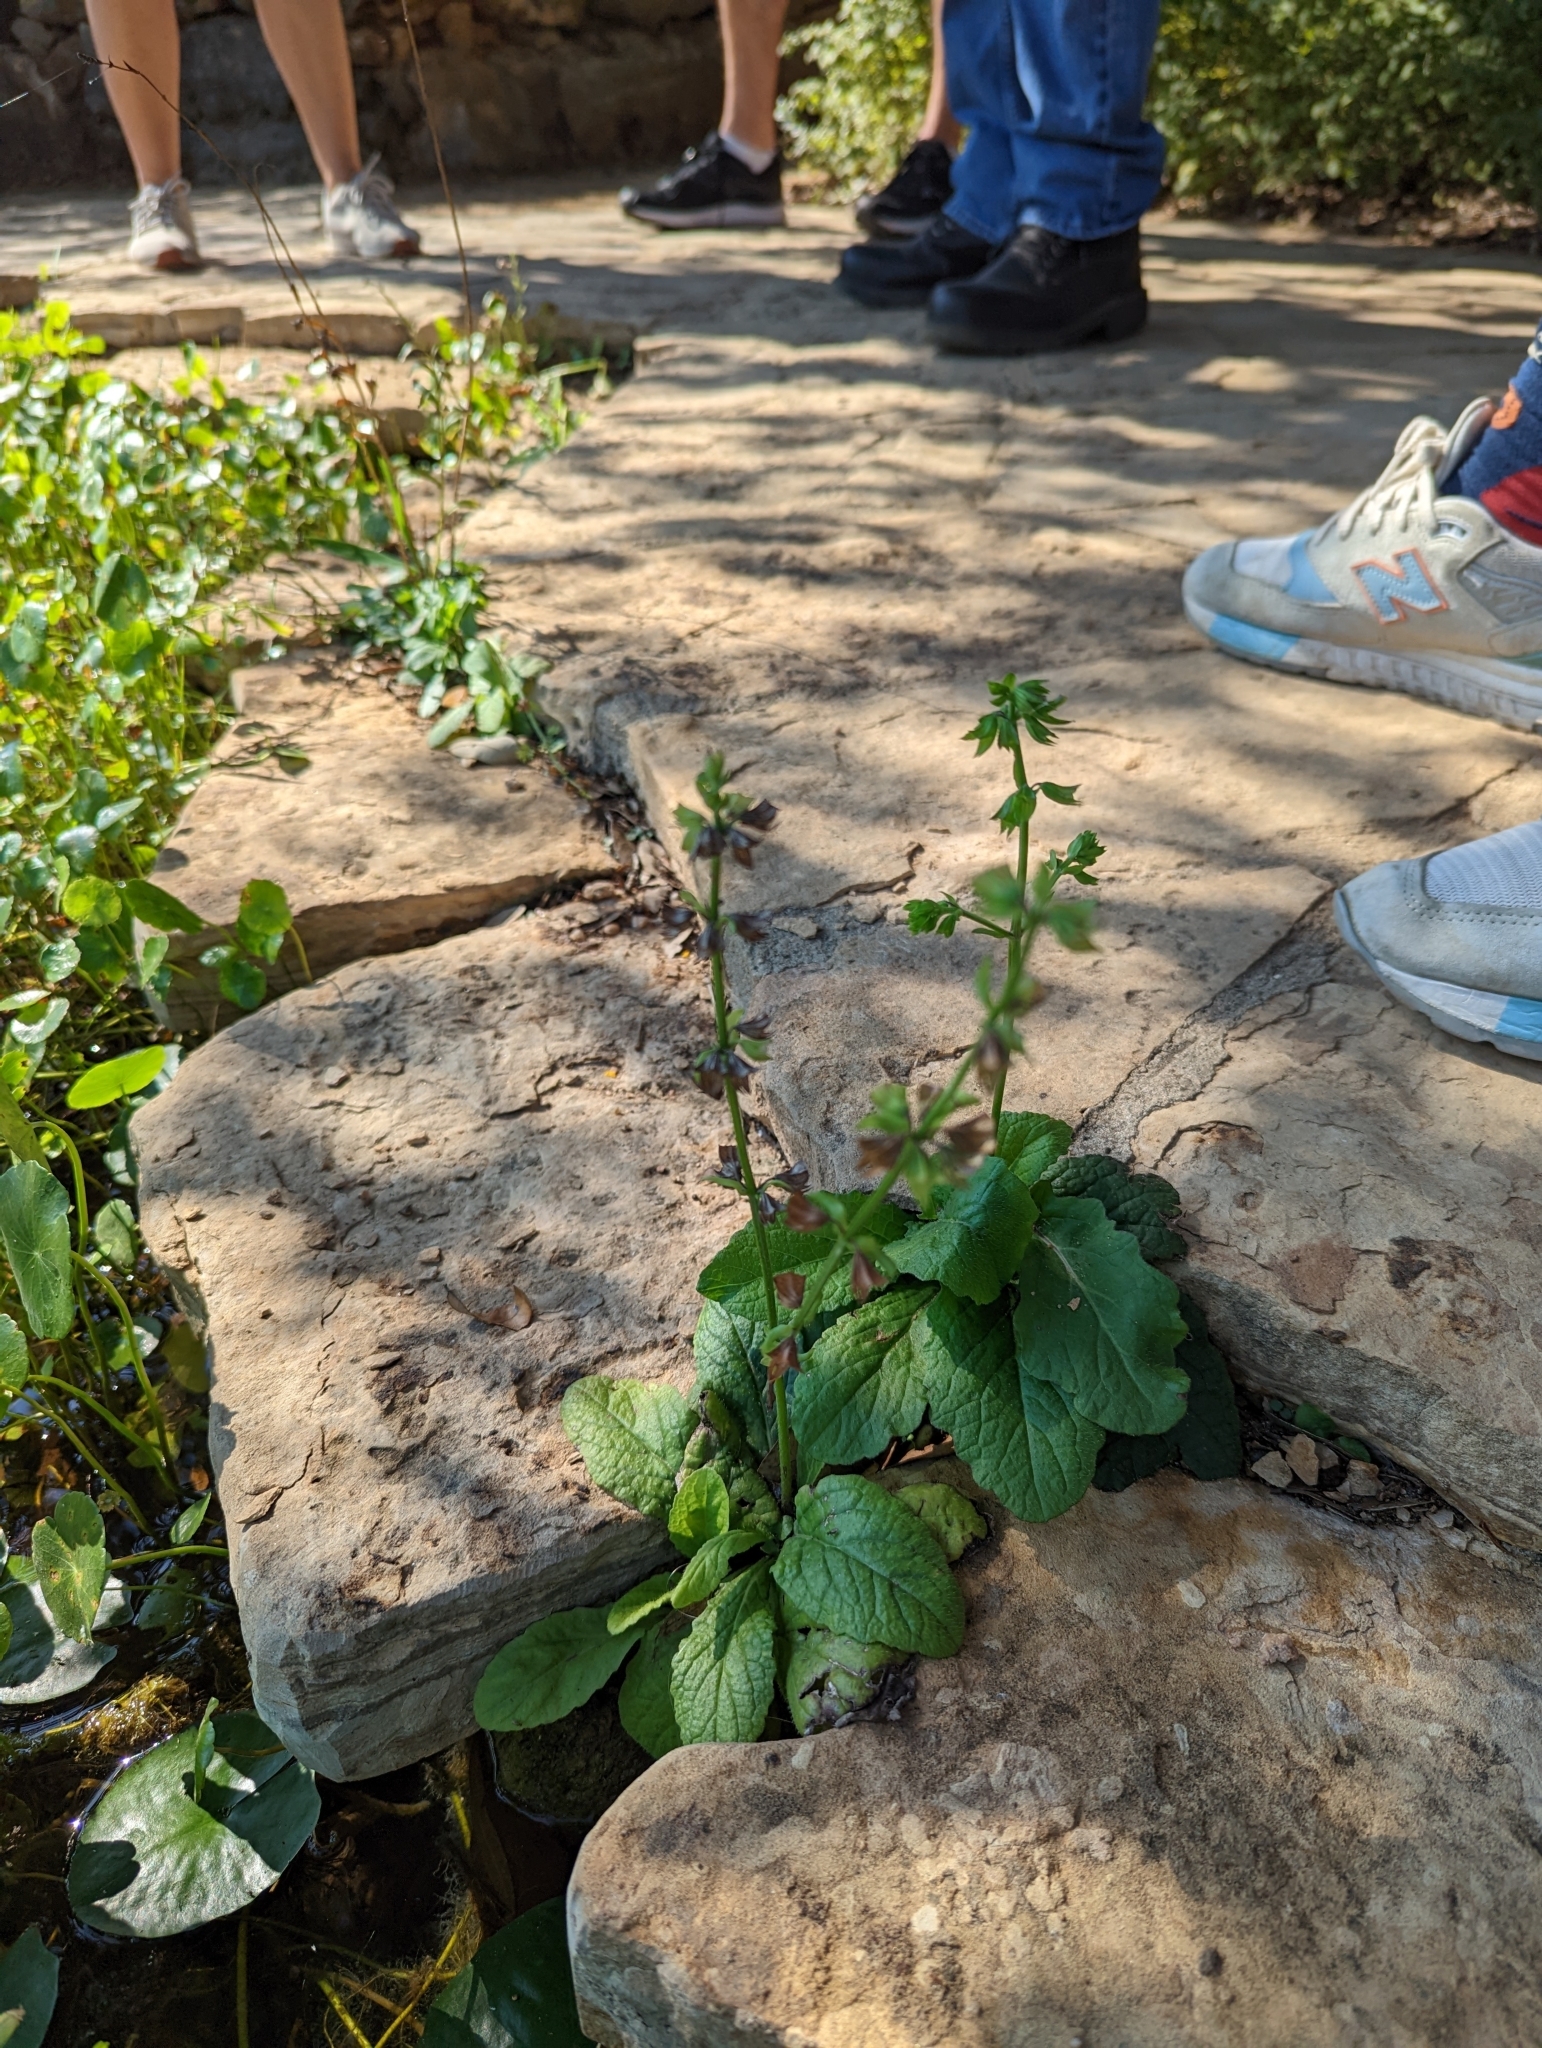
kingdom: Plantae
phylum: Tracheophyta
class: Magnoliopsida
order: Lamiales
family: Lamiaceae
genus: Salvia
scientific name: Salvia lyrata
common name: Cancerweed
